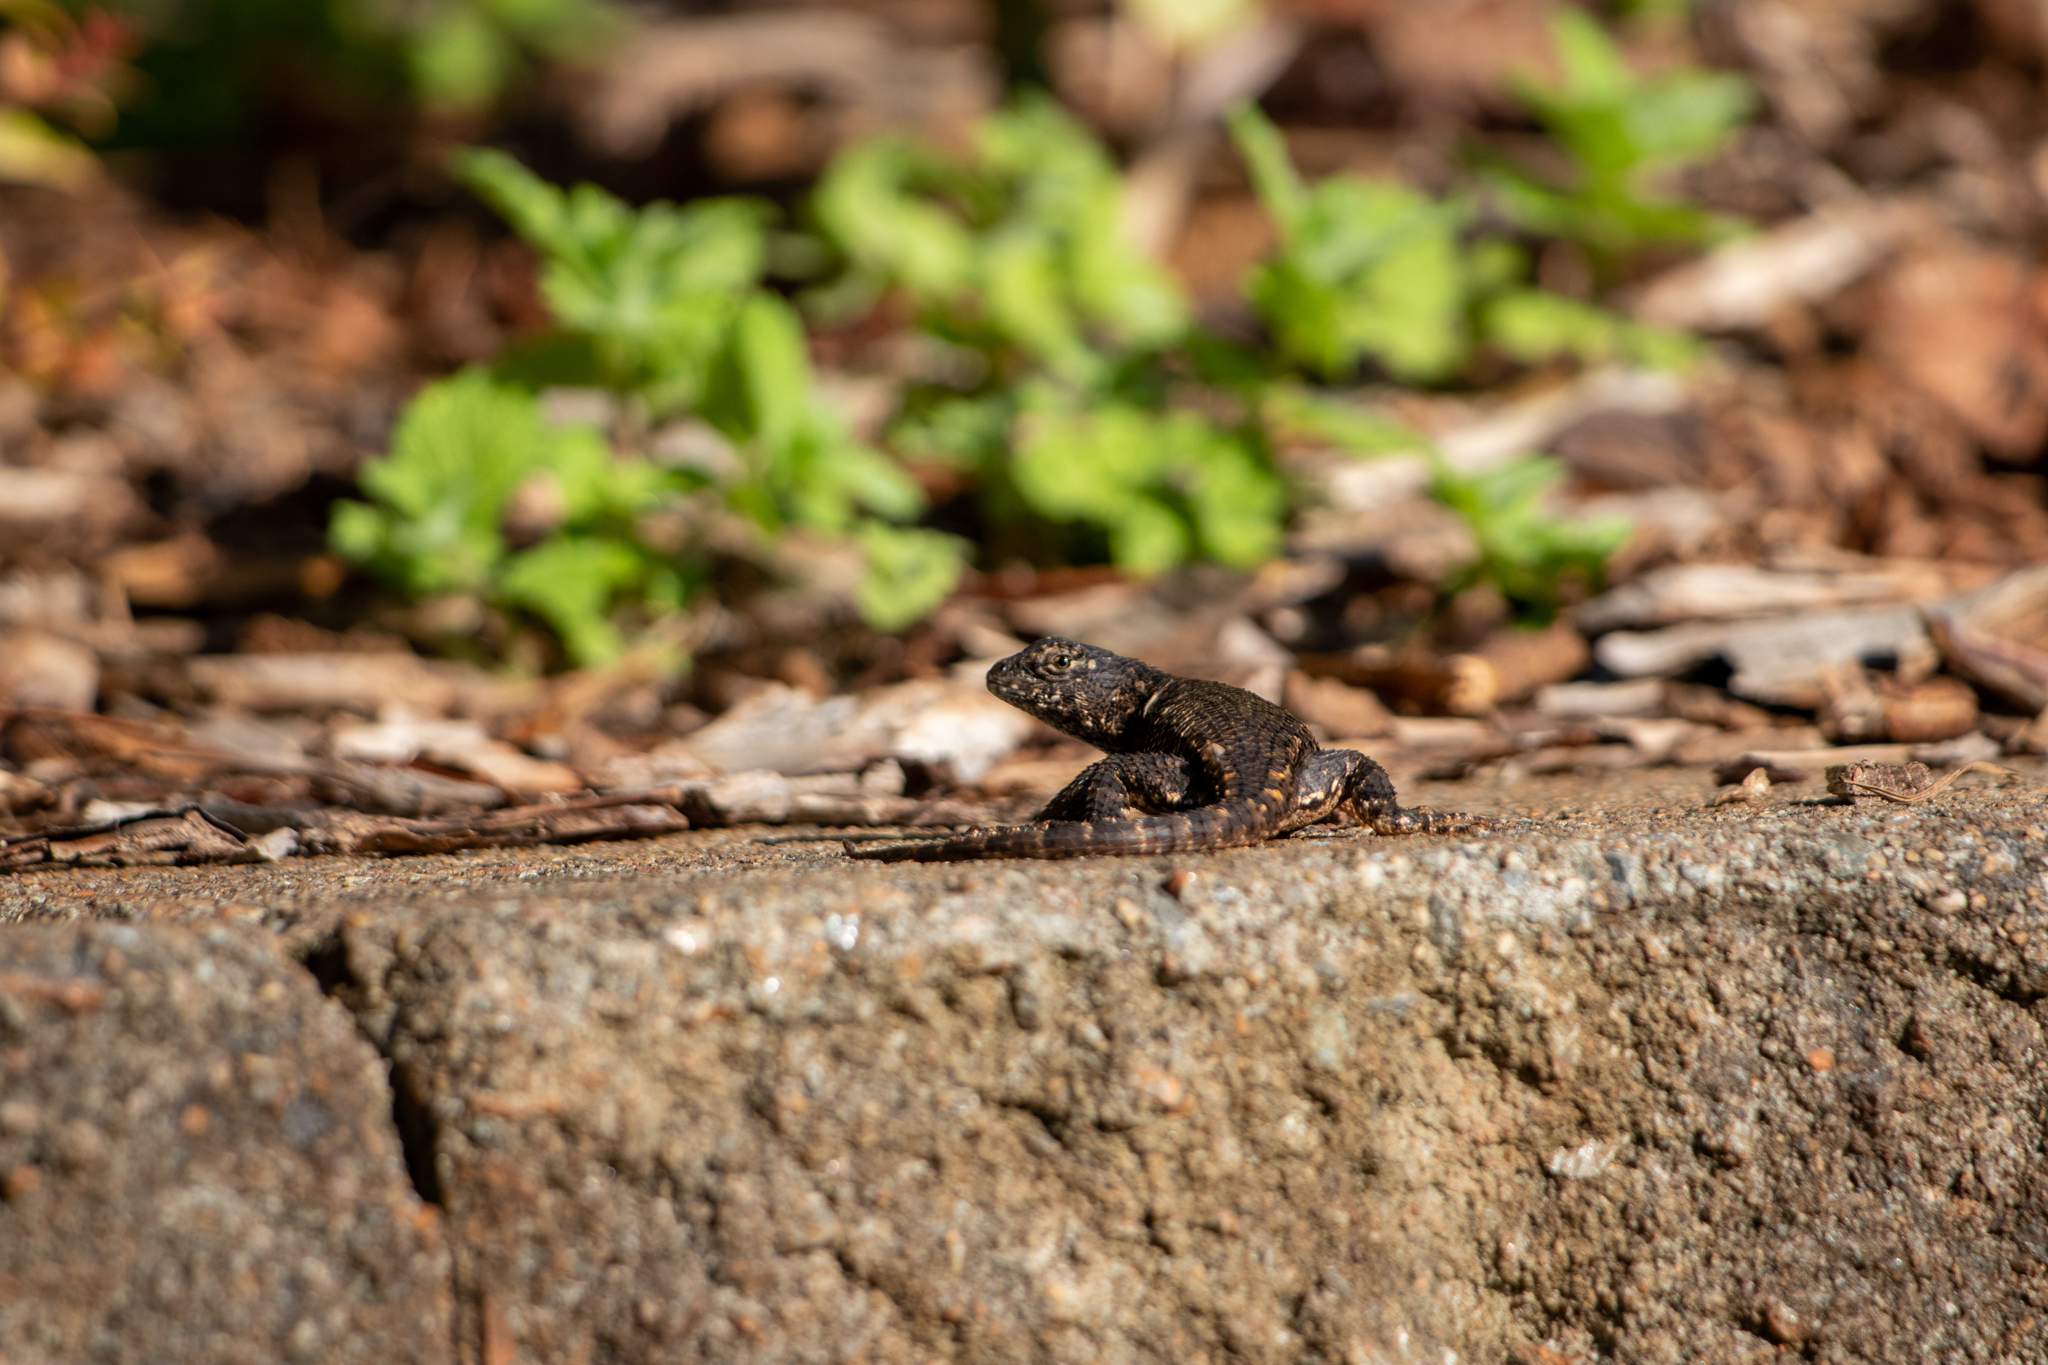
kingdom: Animalia
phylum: Chordata
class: Squamata
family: Phrynosomatidae
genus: Sceloporus
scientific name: Sceloporus undulatus
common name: Eastern fence lizard
